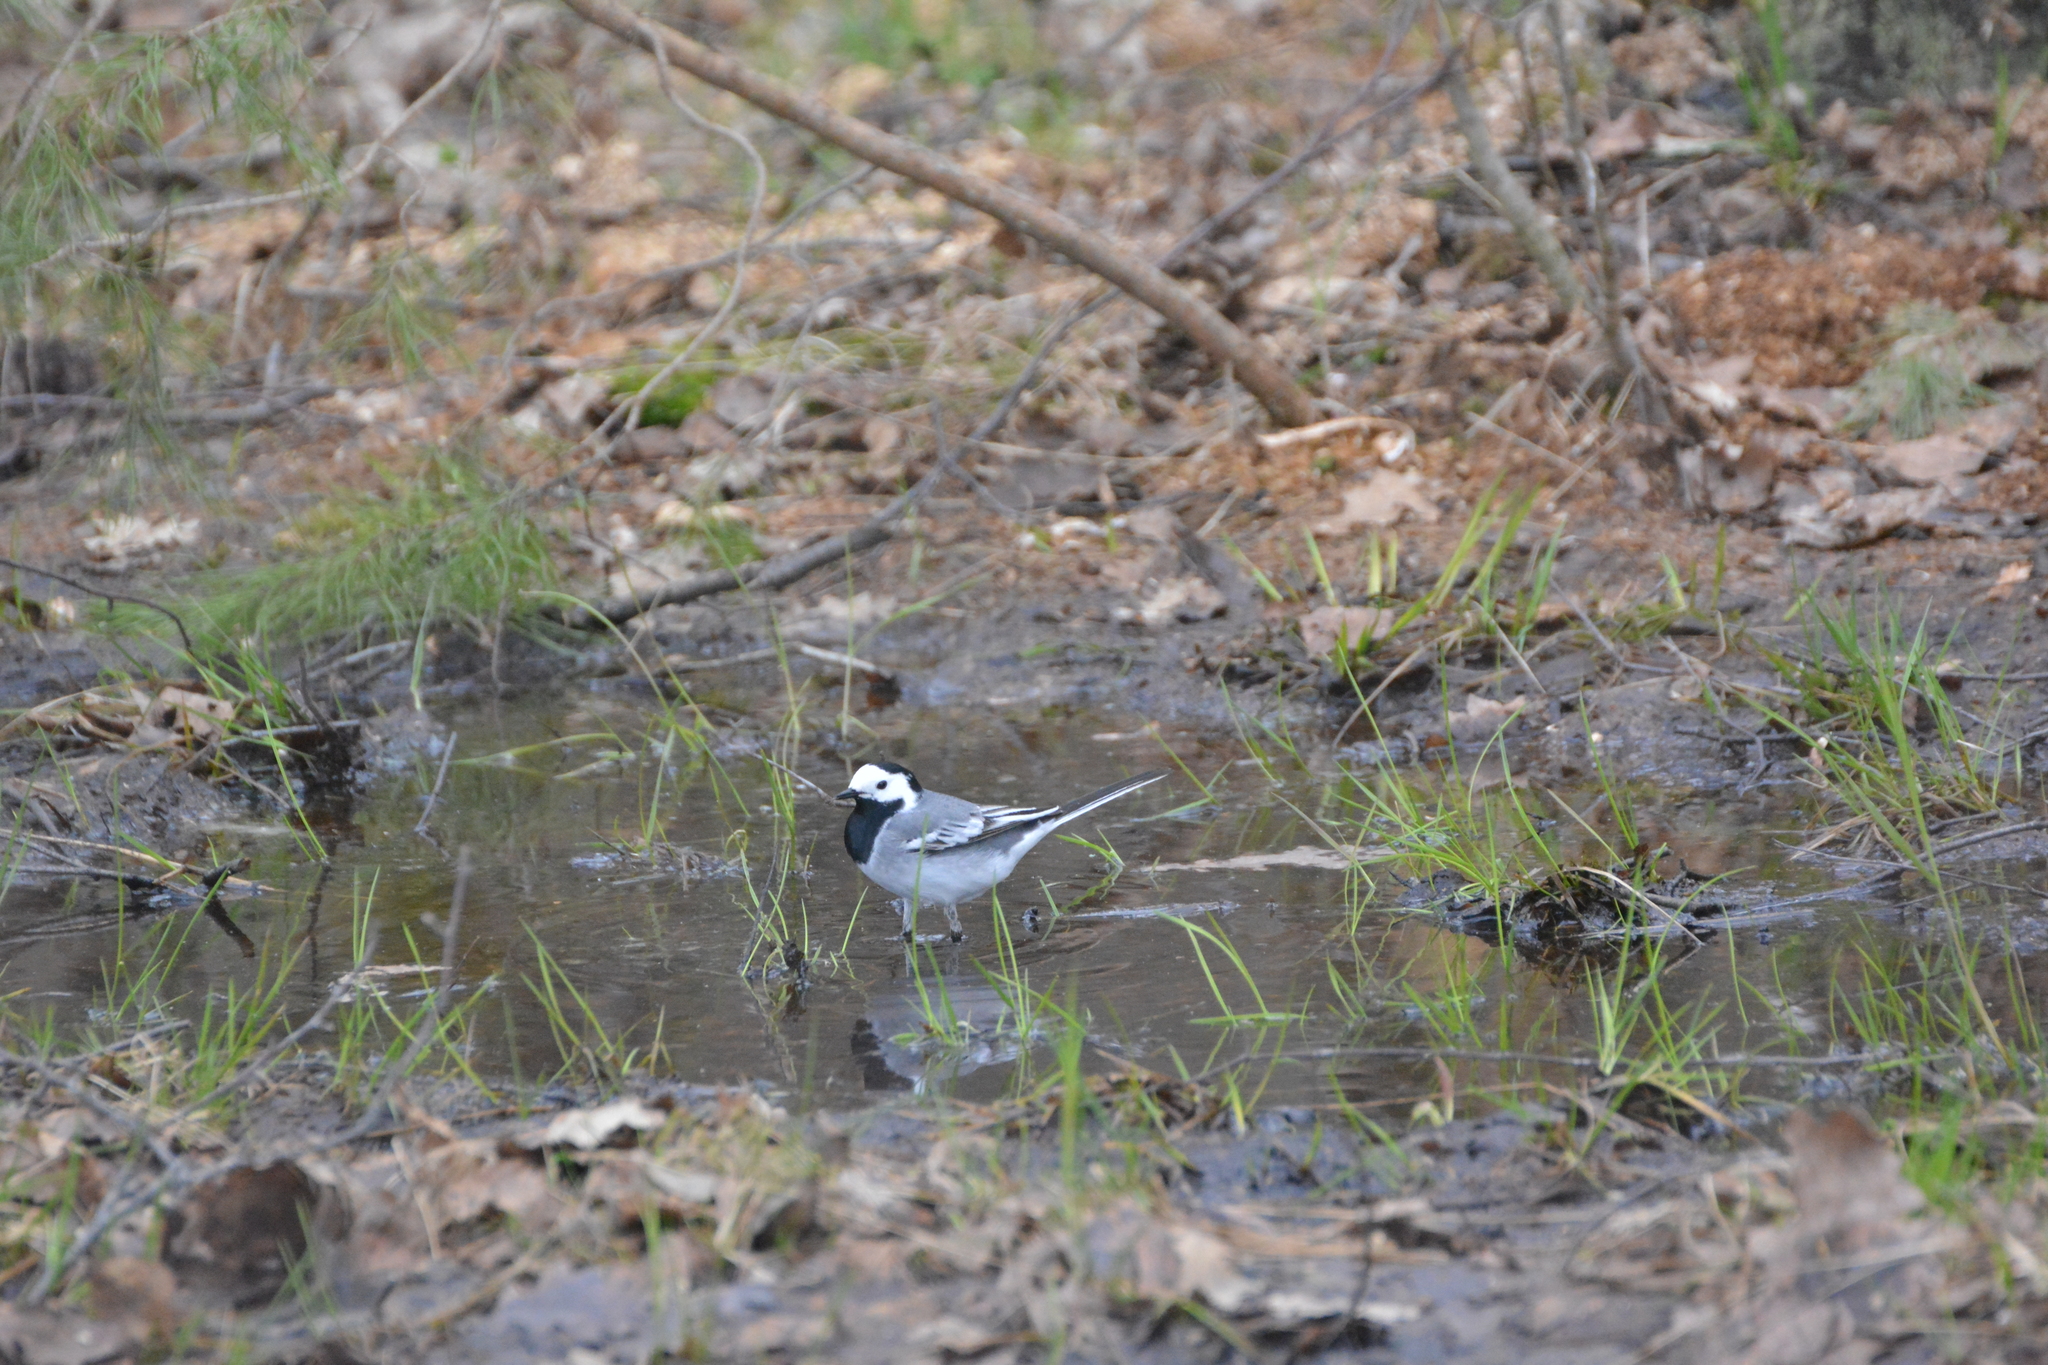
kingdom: Animalia
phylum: Chordata
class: Aves
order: Passeriformes
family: Motacillidae
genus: Motacilla
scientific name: Motacilla alba
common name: White wagtail
